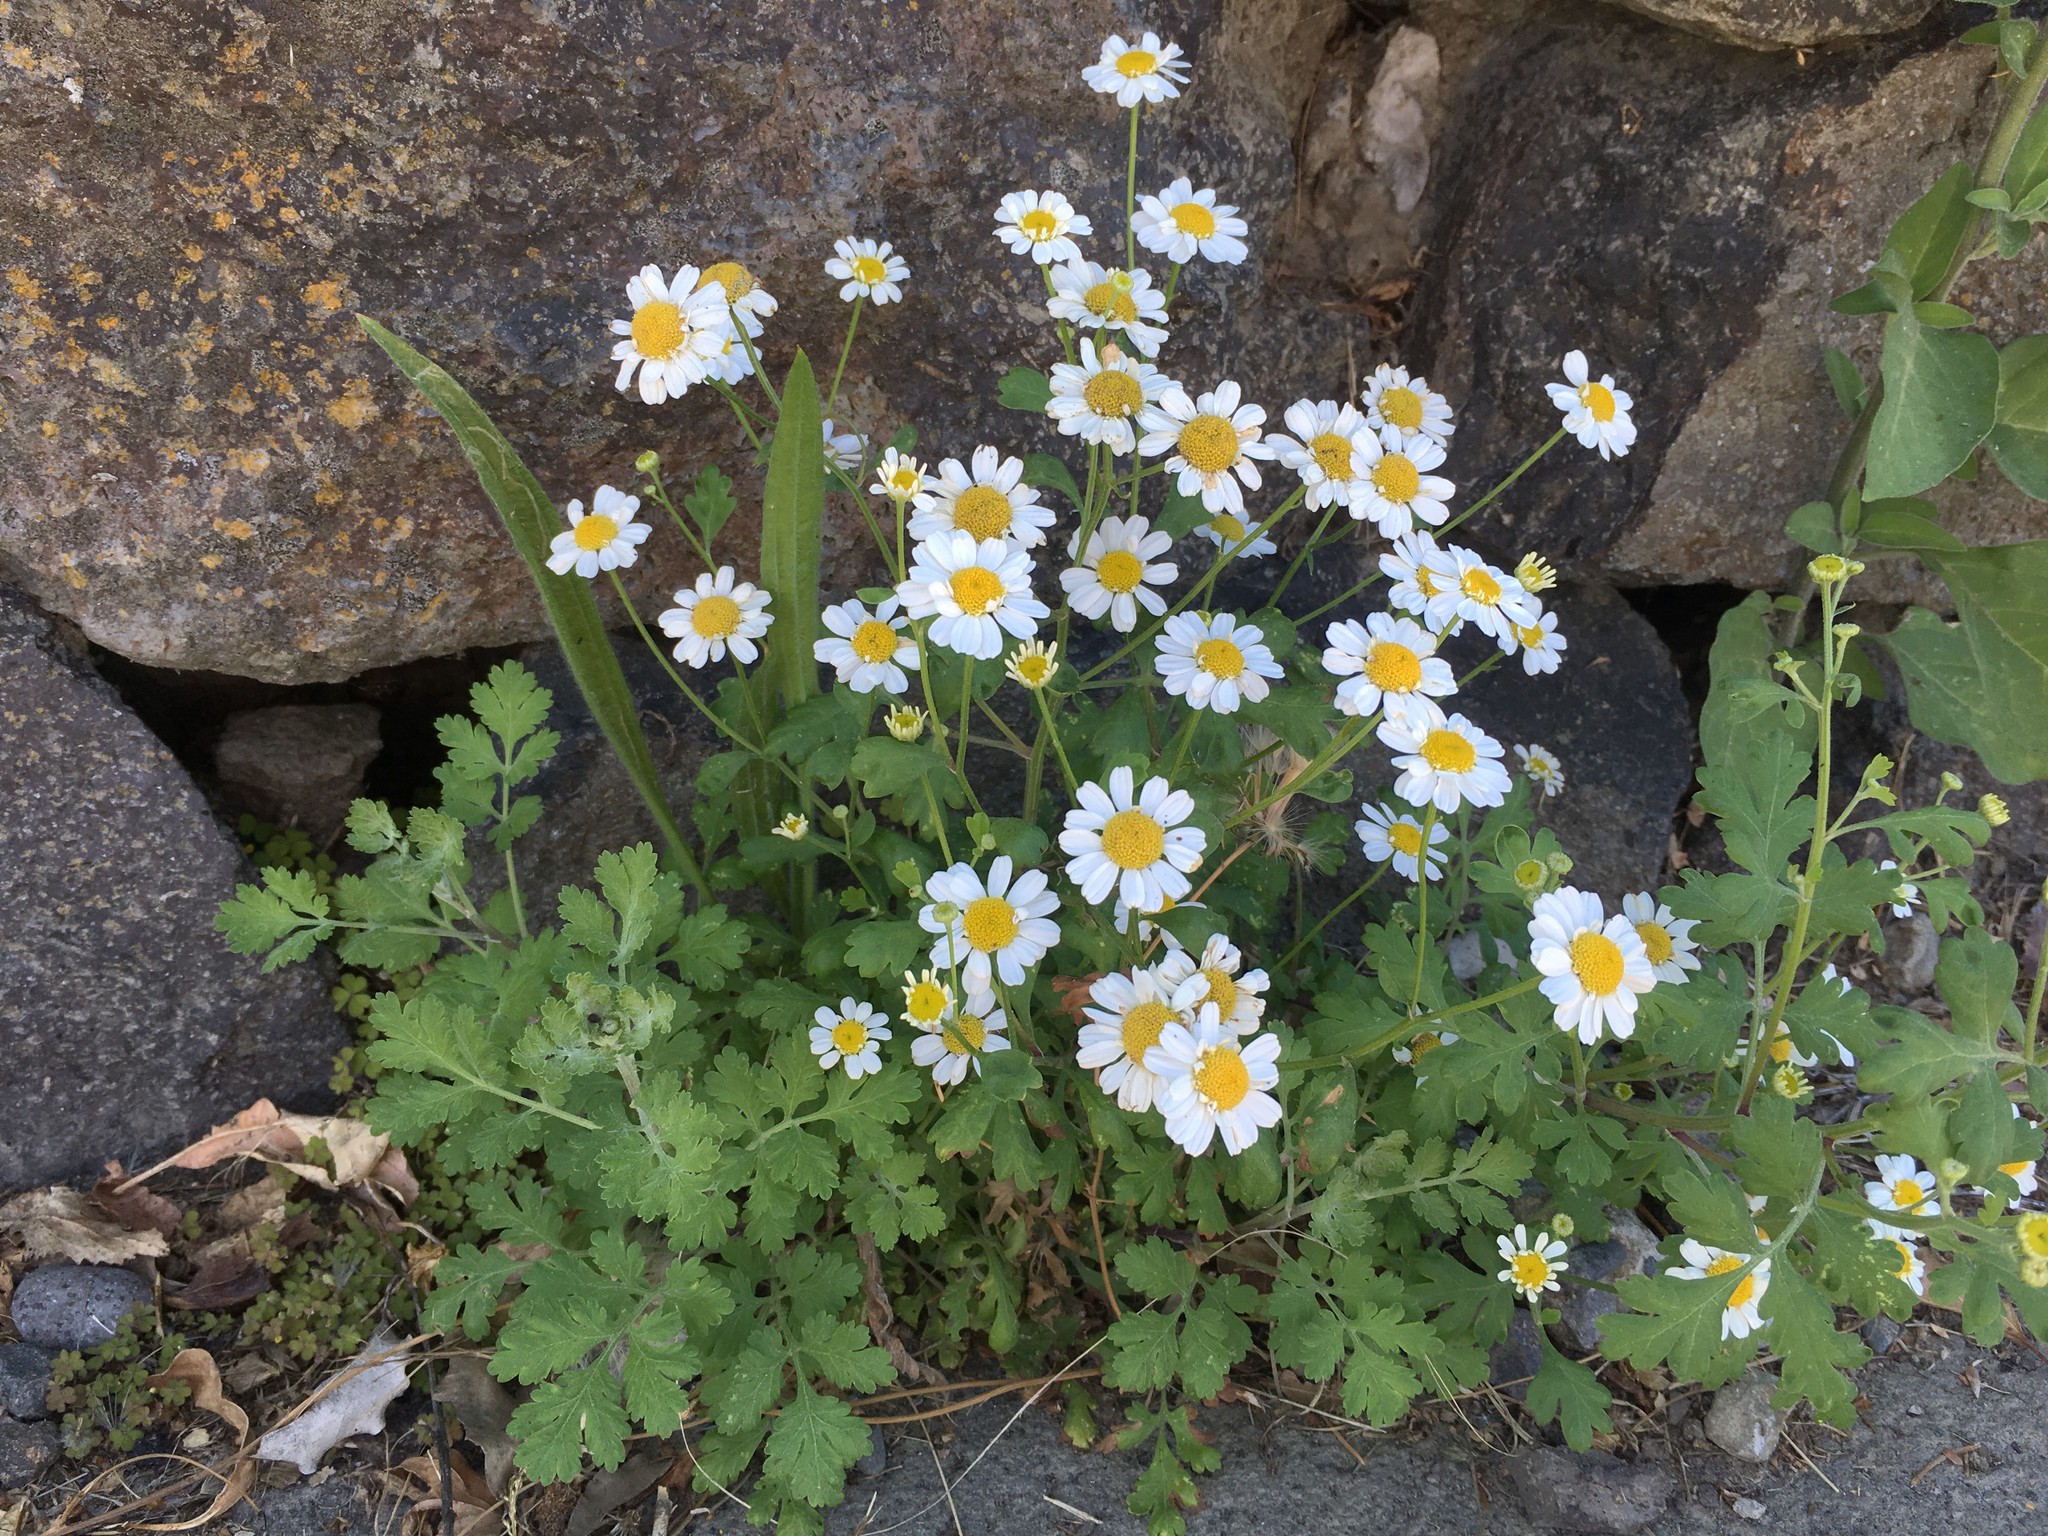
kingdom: Plantae
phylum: Tracheophyta
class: Magnoliopsida
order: Asterales
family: Asteraceae
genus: Tanacetum
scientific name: Tanacetum parthenium
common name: Feverfew
